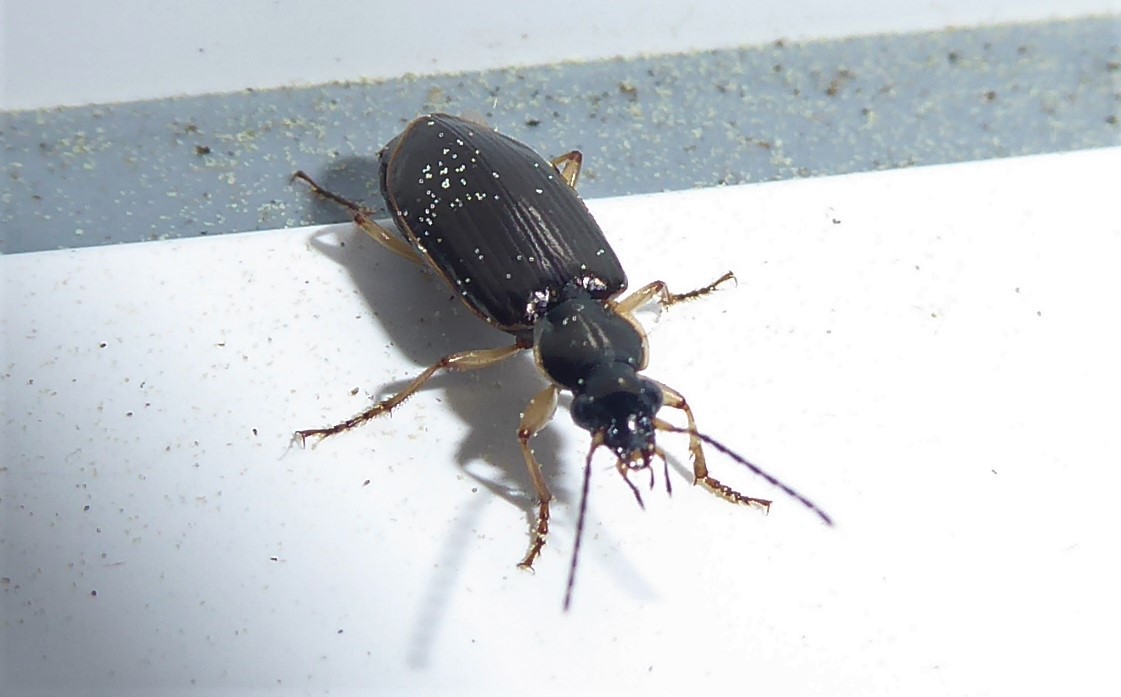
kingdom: Animalia
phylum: Arthropoda
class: Insecta
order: Coleoptera
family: Carabidae
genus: Notagonum
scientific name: Notagonum submetallicum
